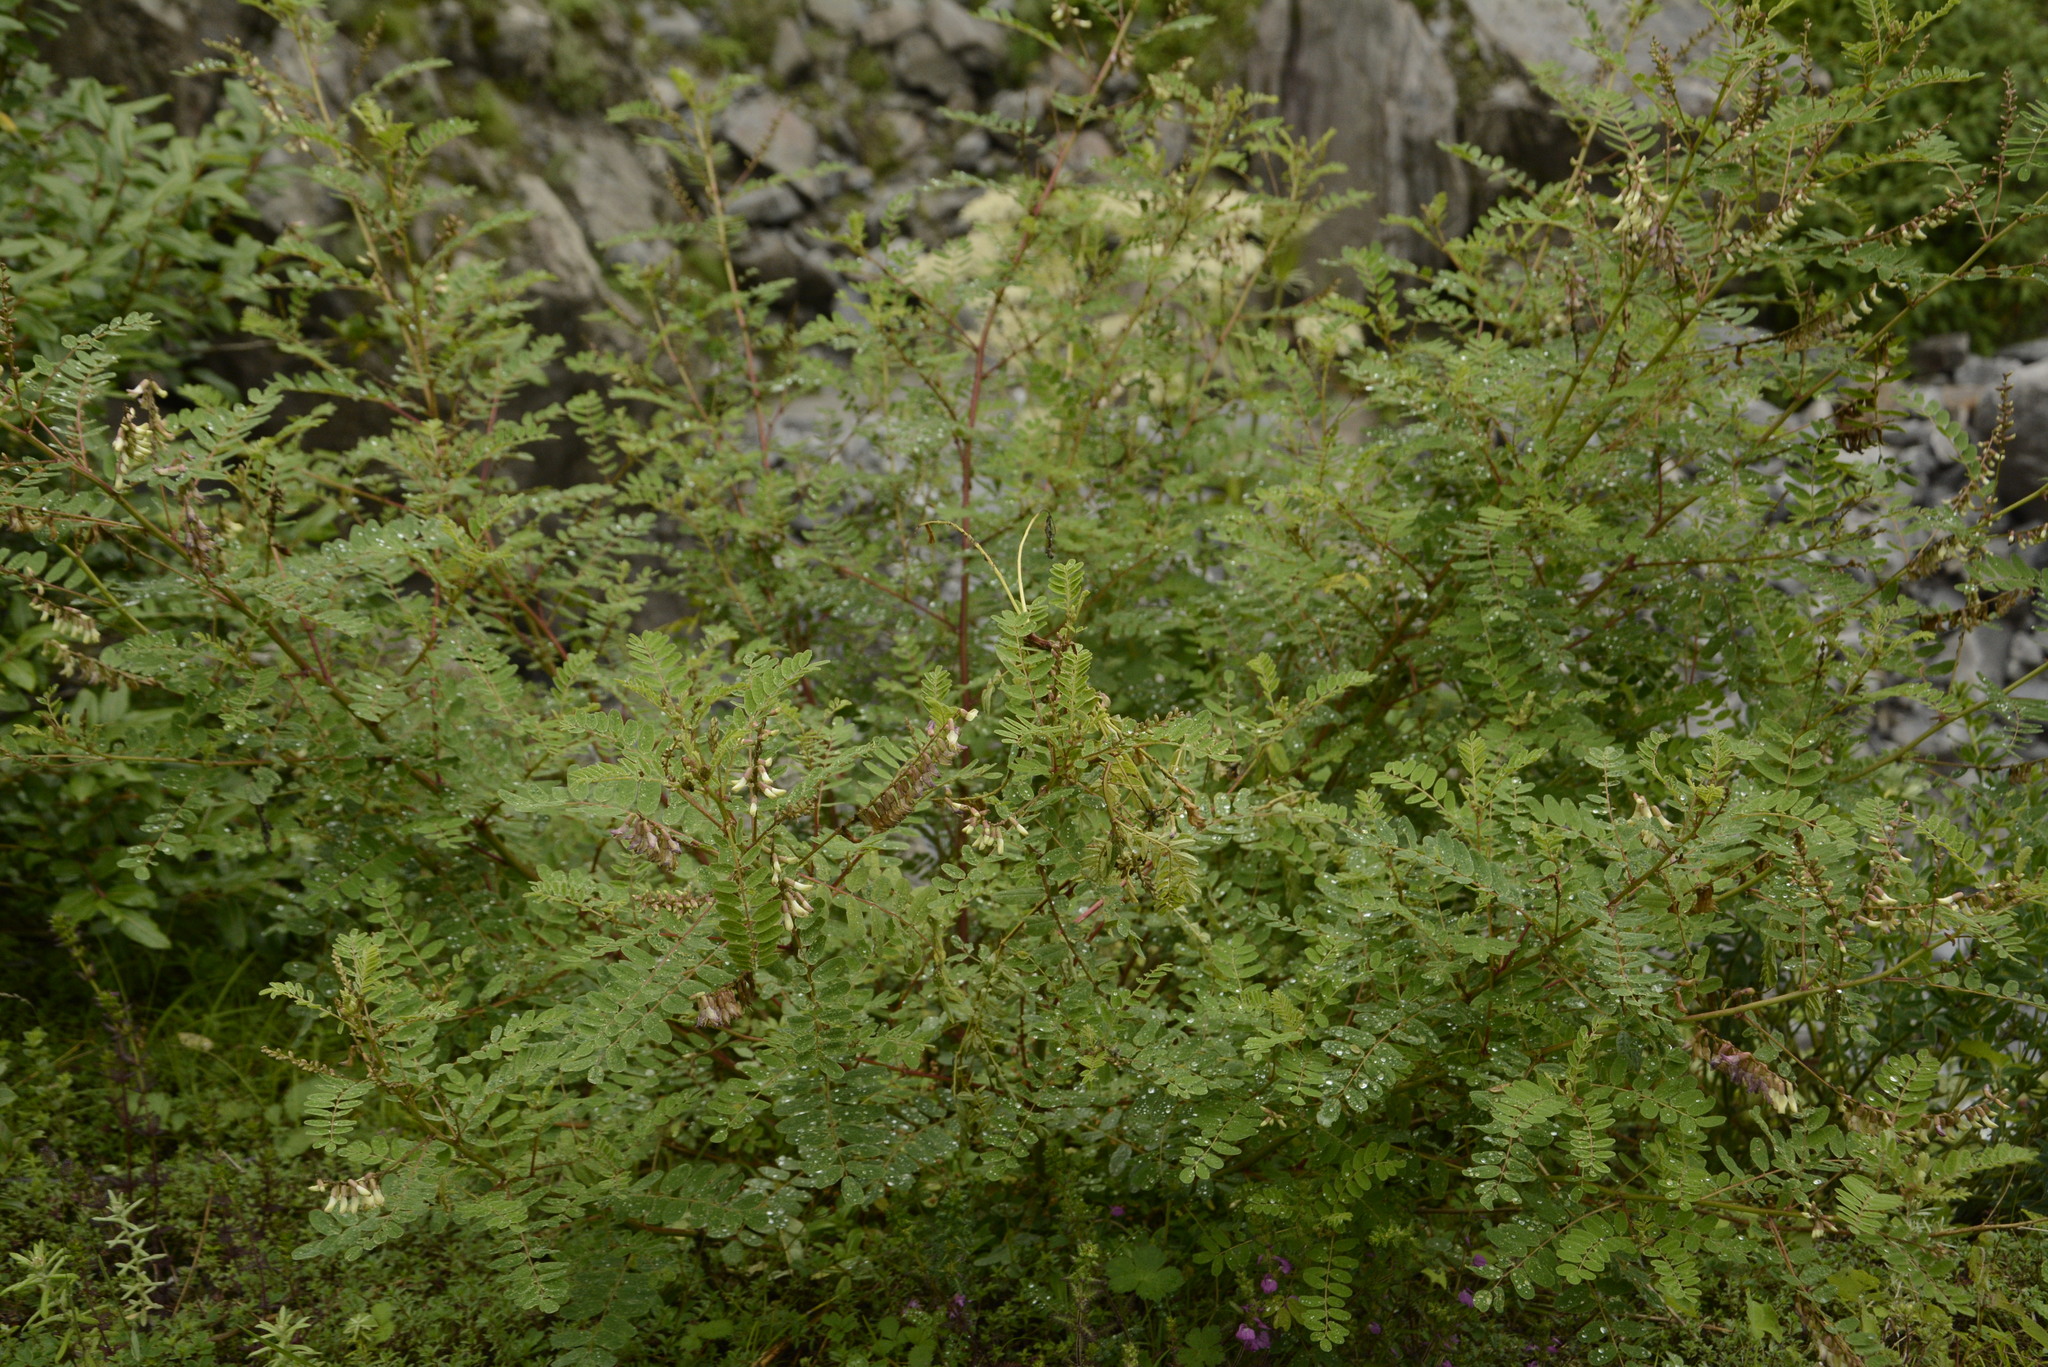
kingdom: Plantae
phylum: Tracheophyta
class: Magnoliopsida
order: Fabales
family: Fabaceae
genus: Astragalus
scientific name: Astragalus chlorostachys
